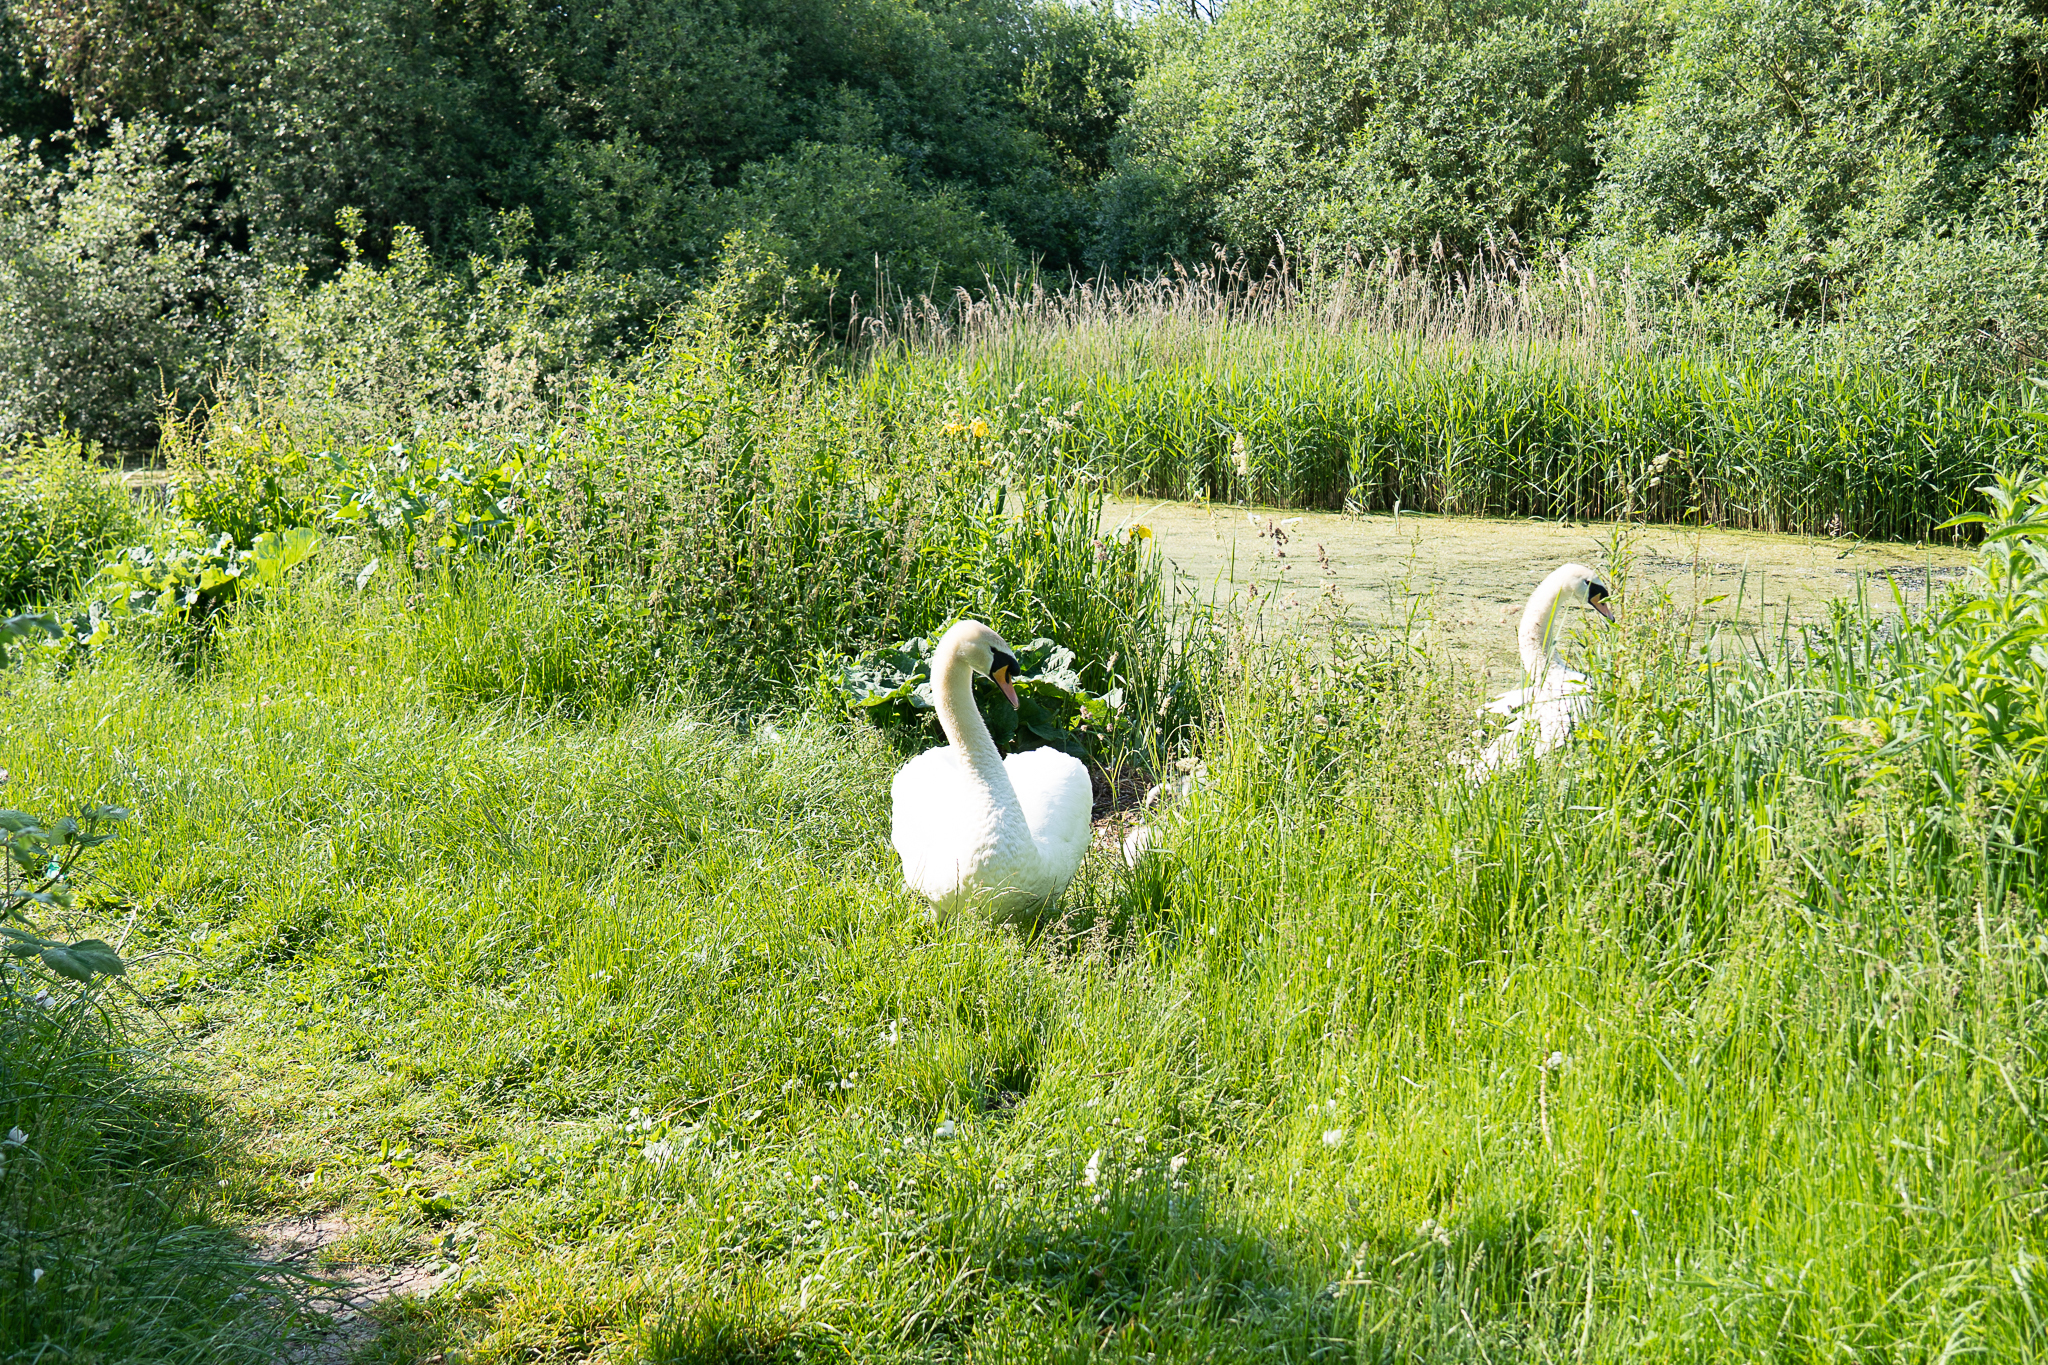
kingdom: Animalia
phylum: Chordata
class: Aves
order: Anseriformes
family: Anatidae
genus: Cygnus
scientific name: Cygnus olor
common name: Mute swan
